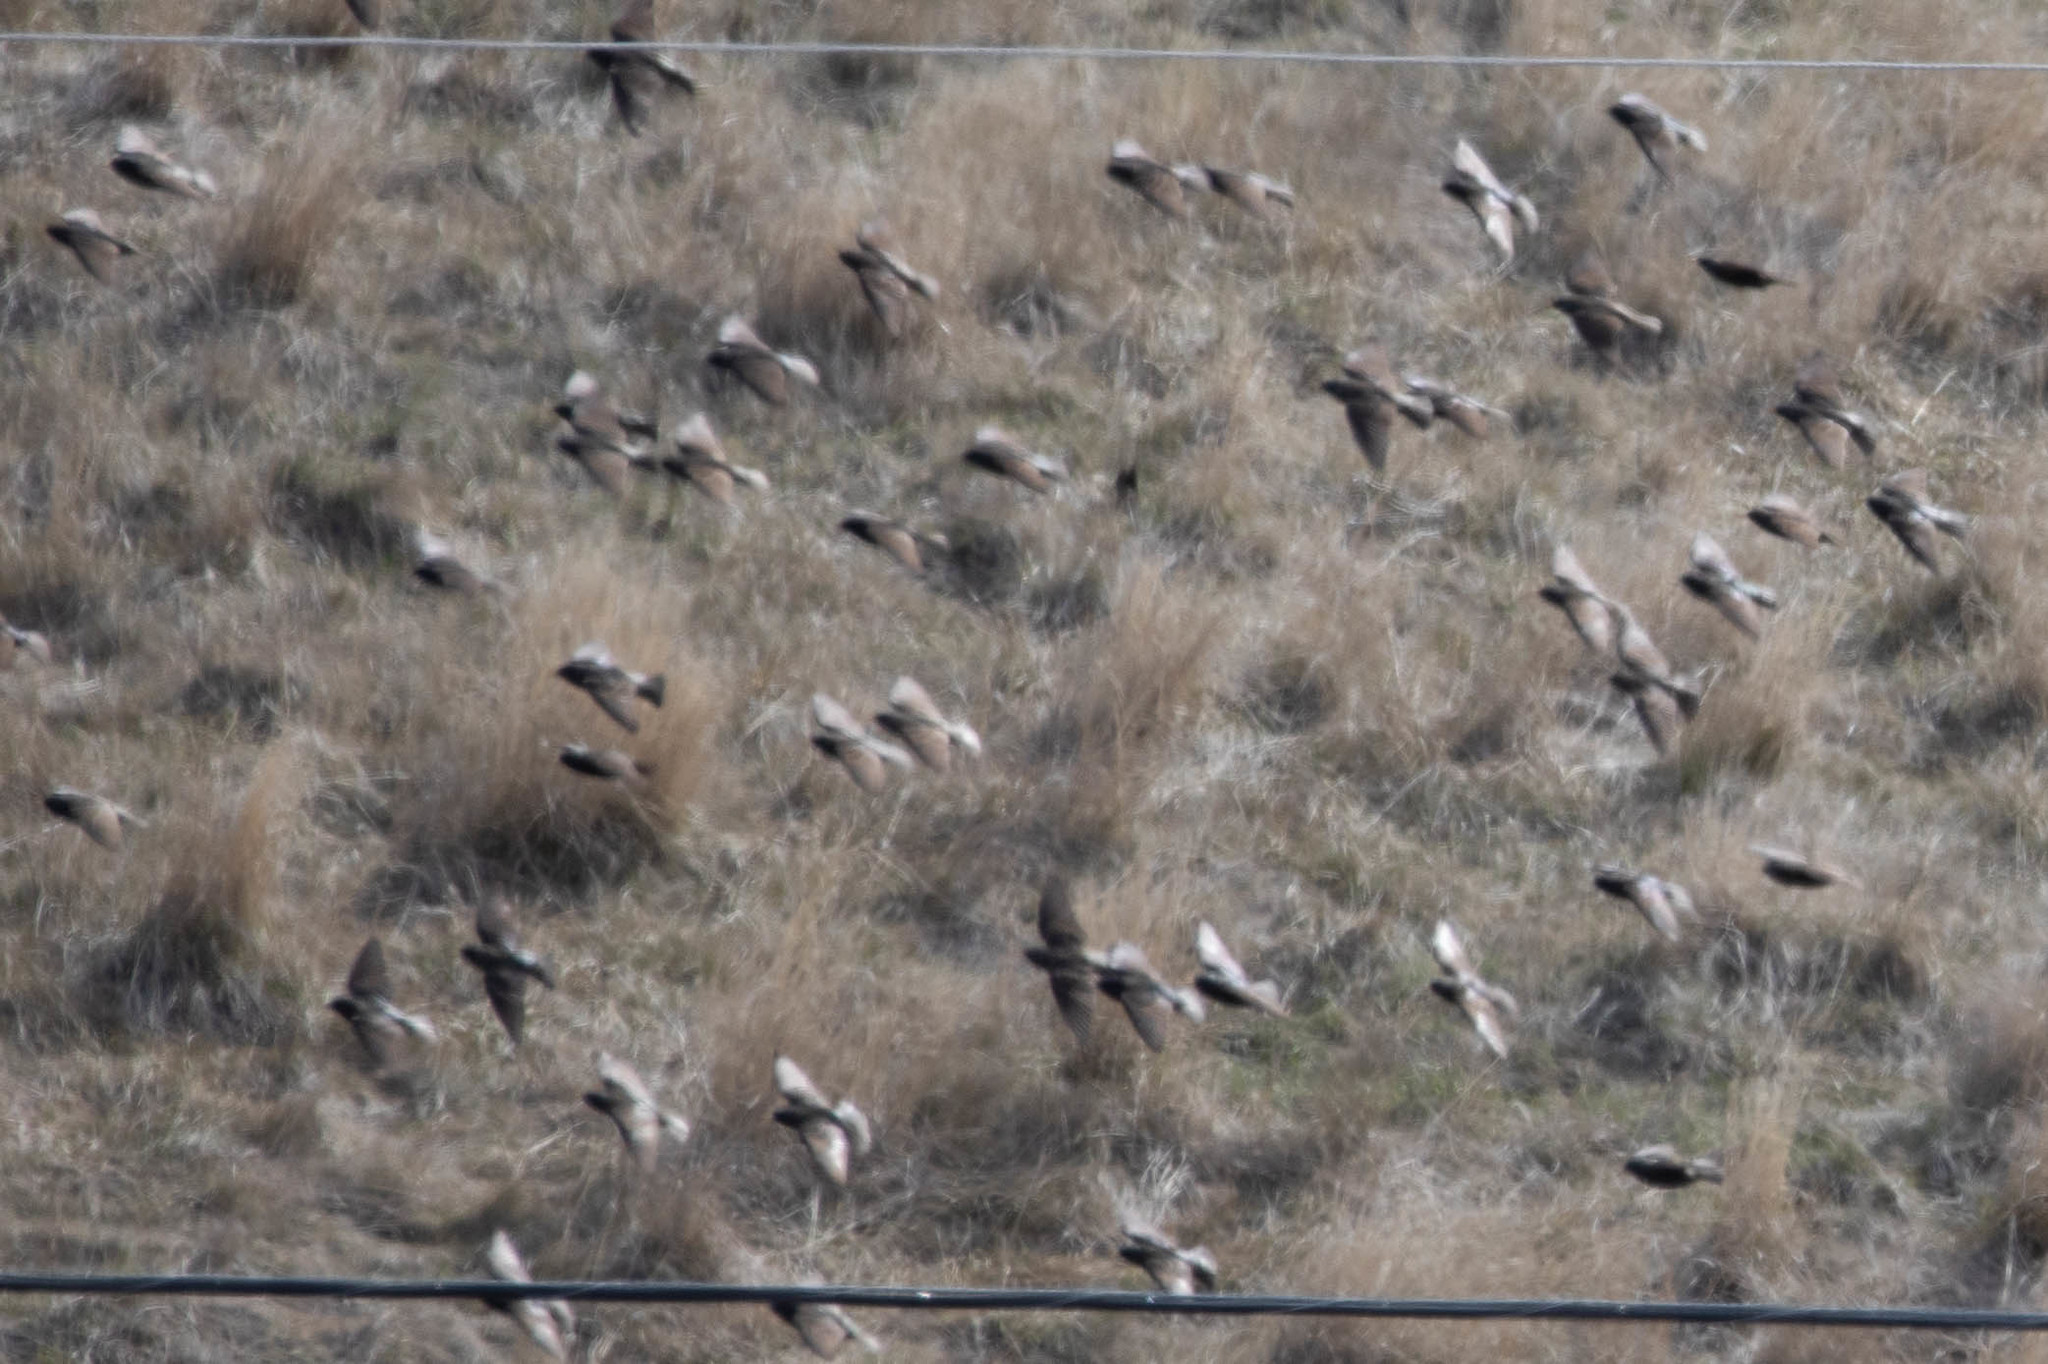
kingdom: Animalia
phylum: Chordata
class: Aves
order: Passeriformes
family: Sturnidae
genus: Sturnus
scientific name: Sturnus vulgaris
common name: Common starling
